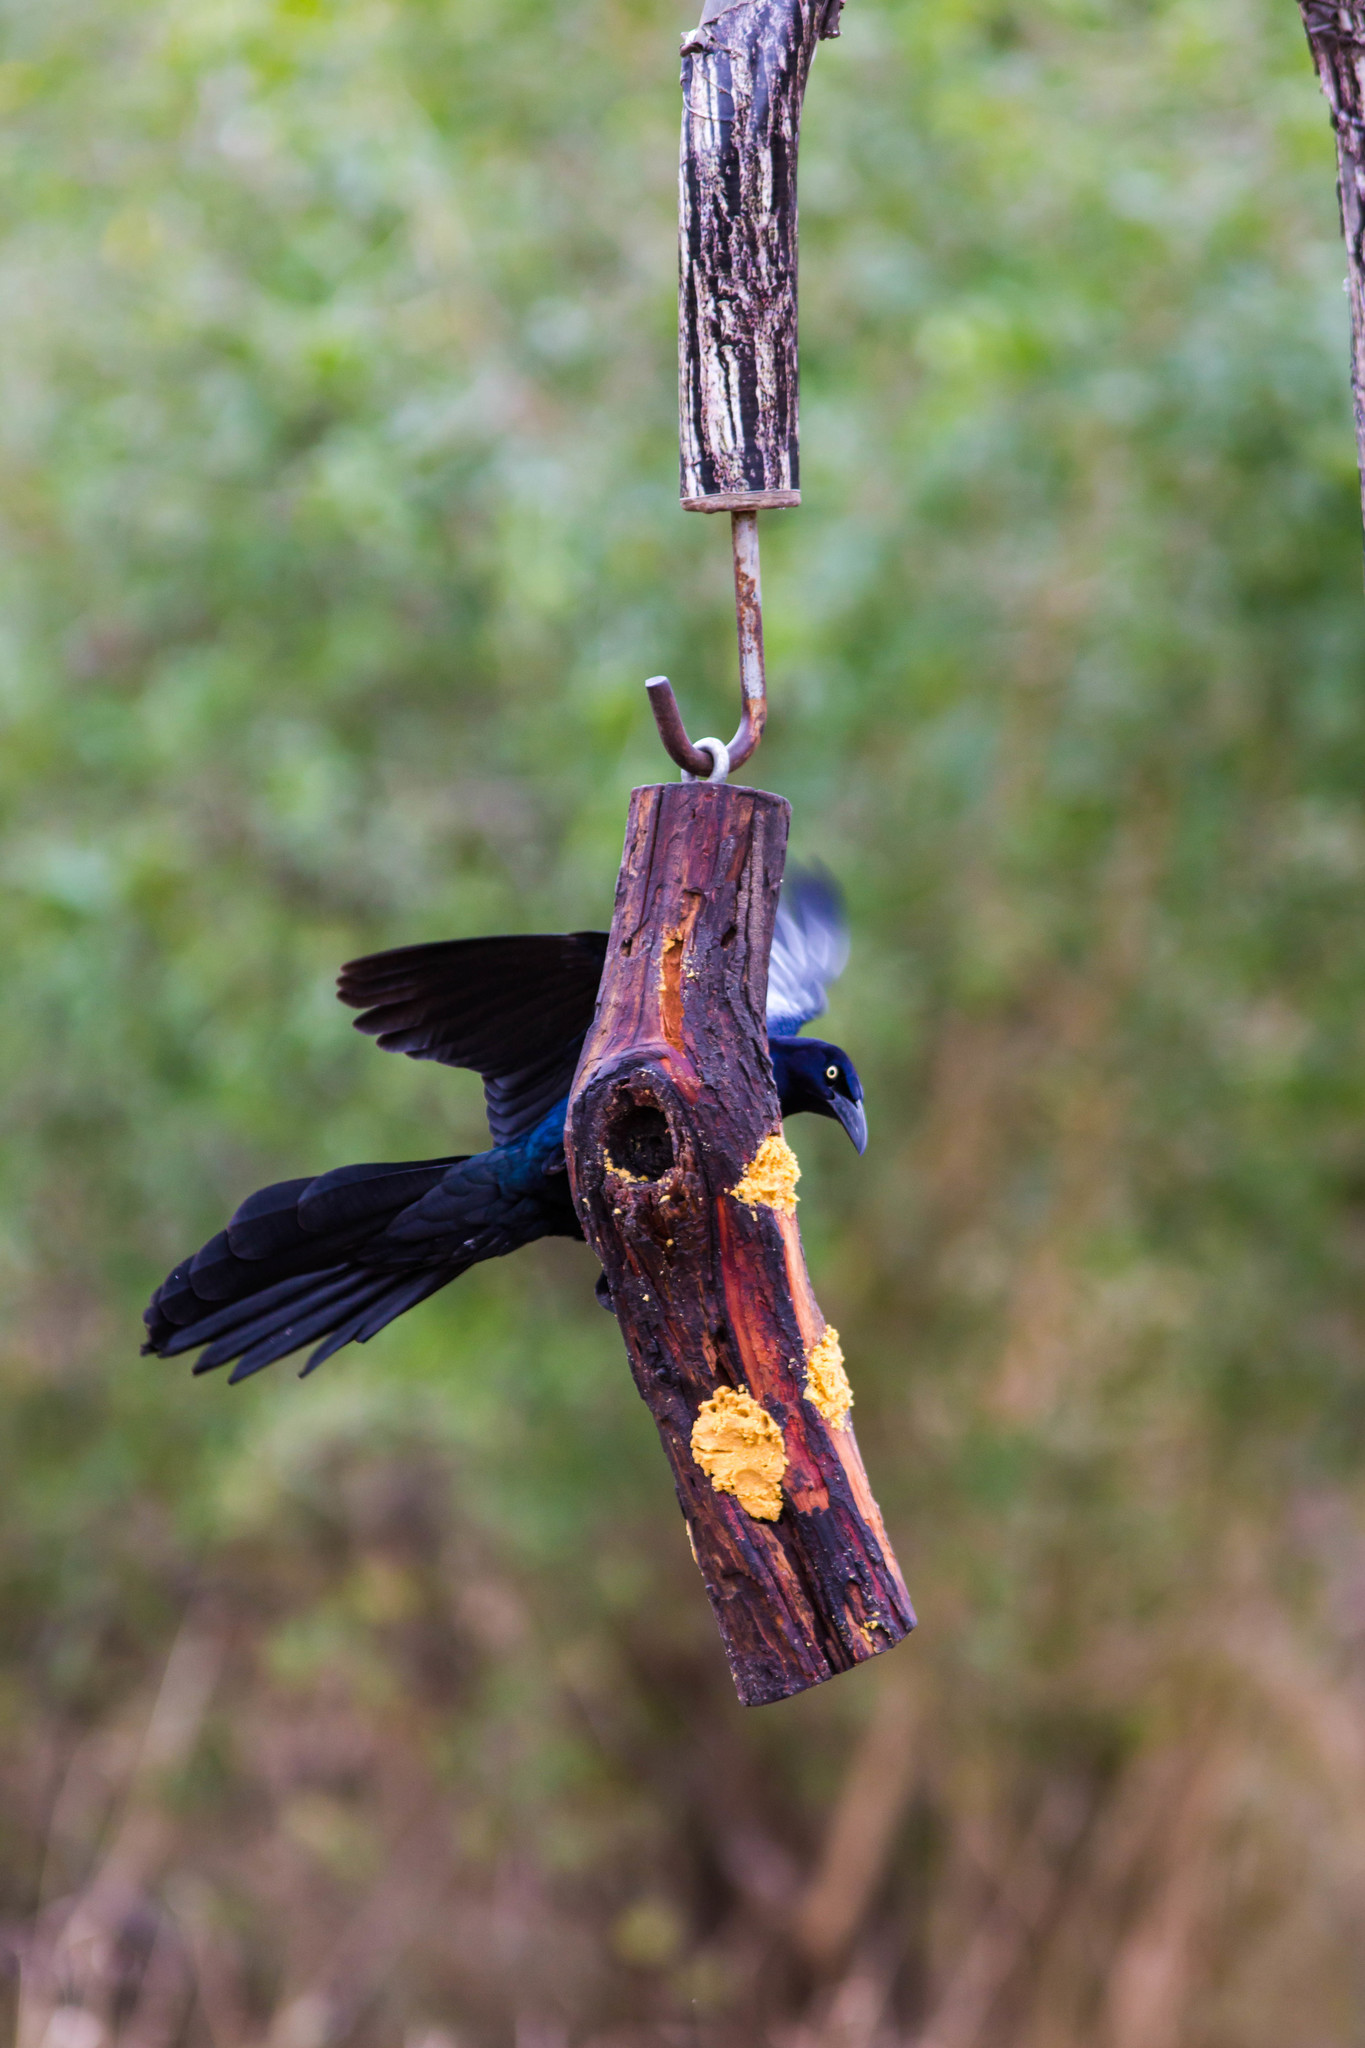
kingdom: Animalia
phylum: Chordata
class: Aves
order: Passeriformes
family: Icteridae
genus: Quiscalus
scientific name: Quiscalus mexicanus
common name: Great-tailed grackle
